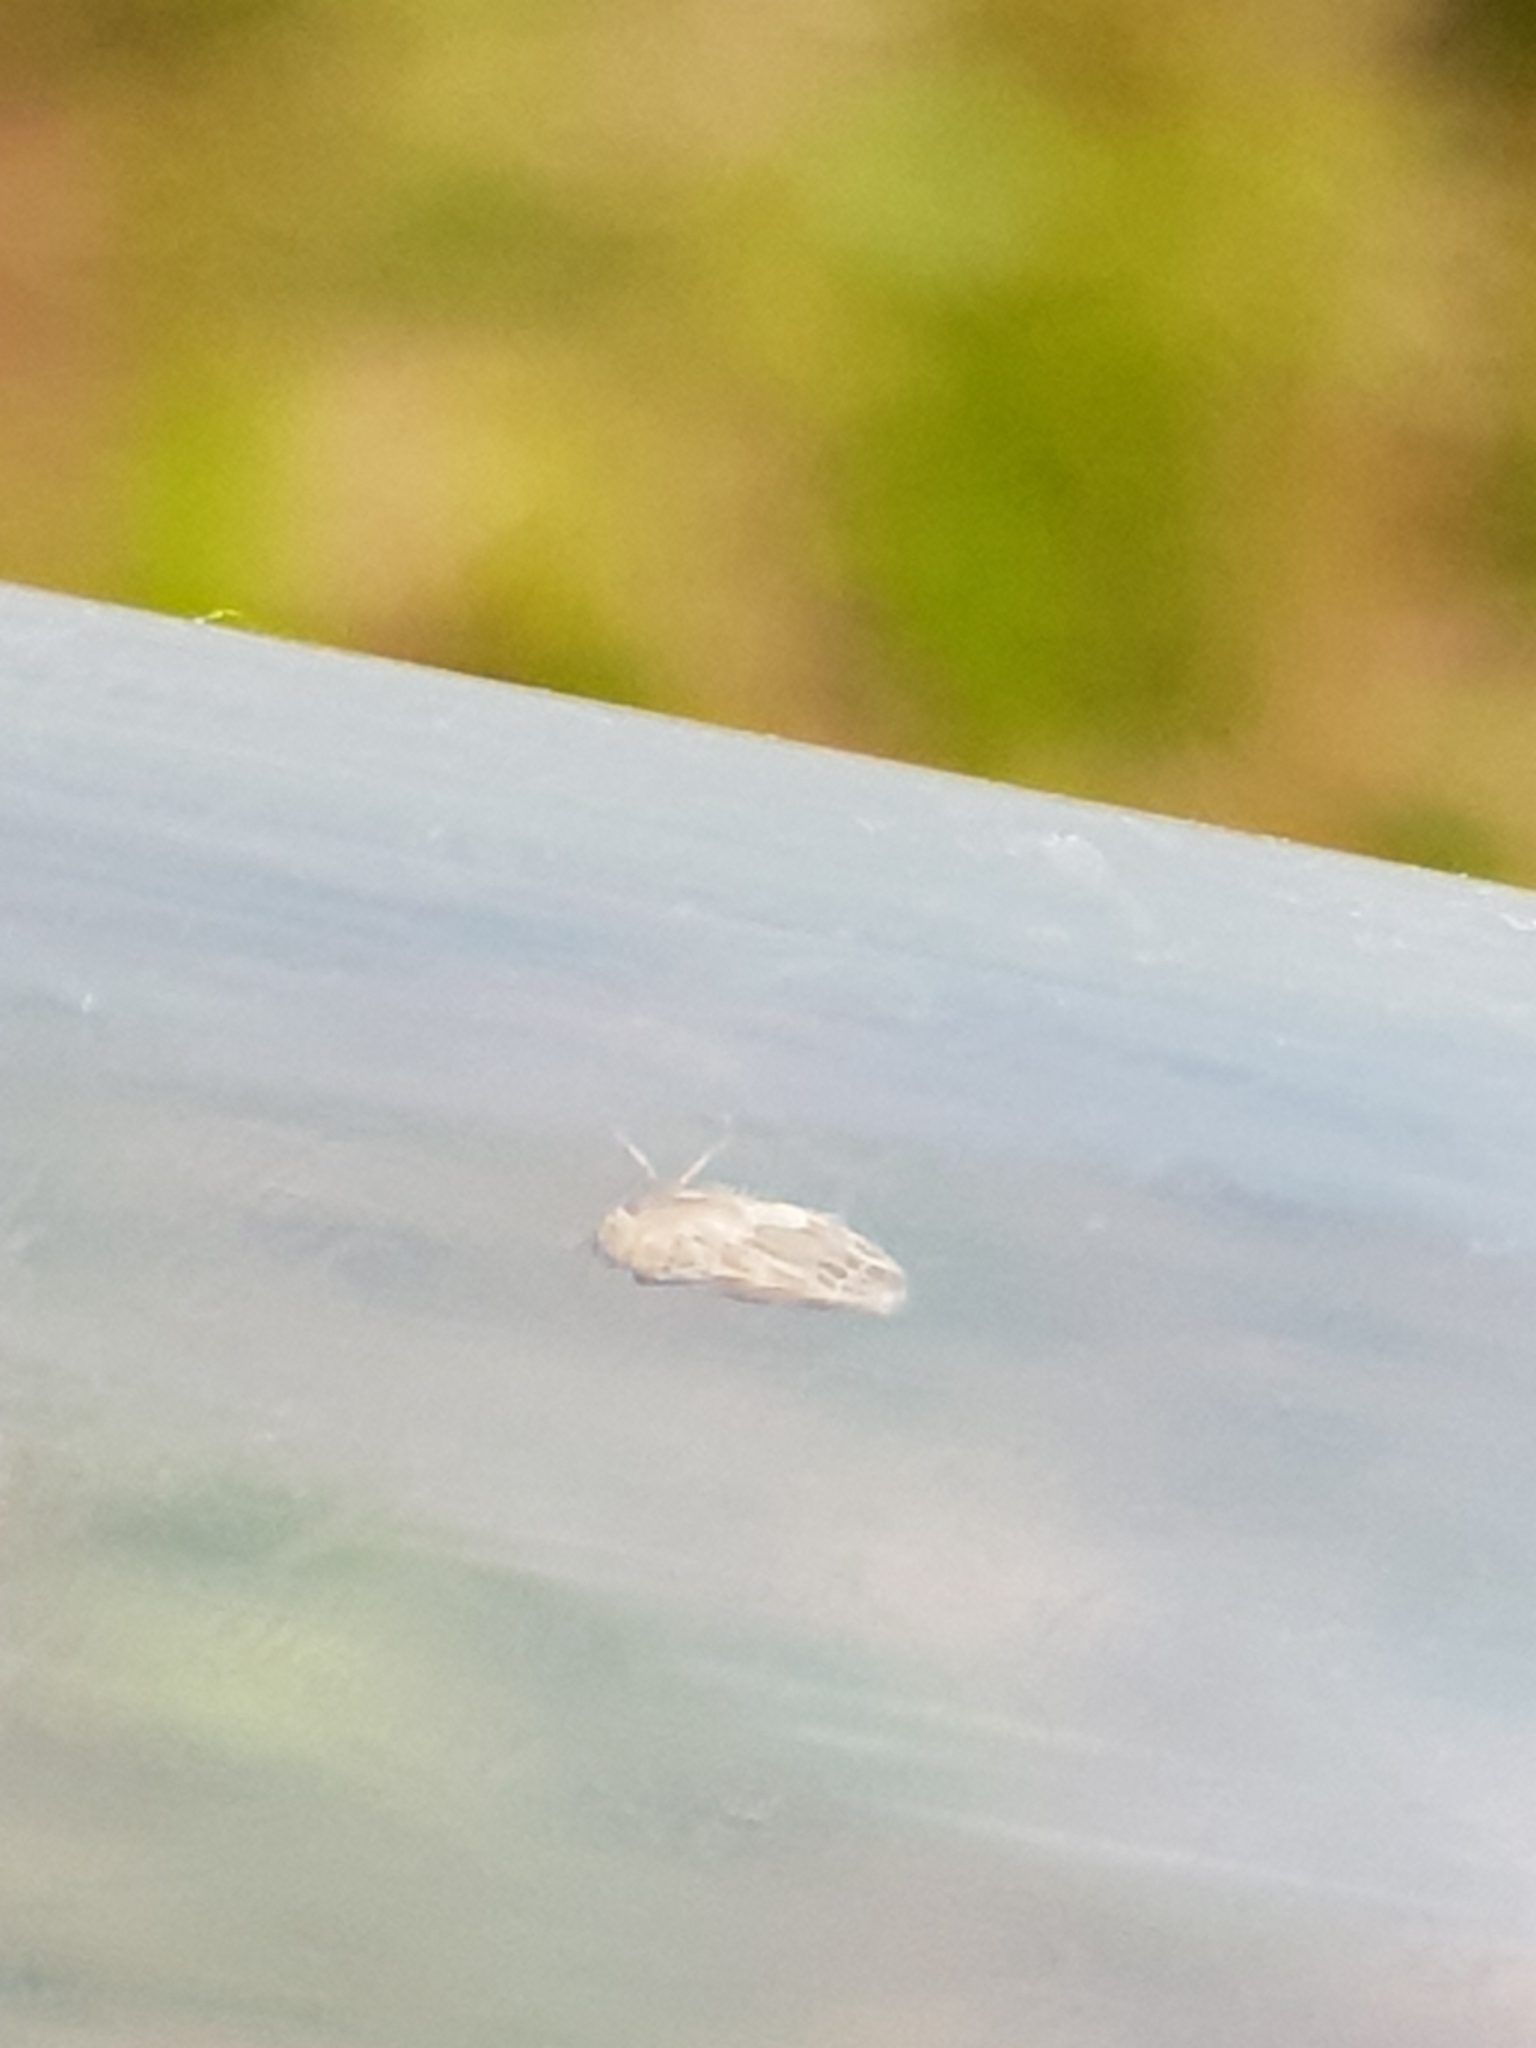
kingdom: Animalia
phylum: Arthropoda
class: Insecta
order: Hemiptera
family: Cicadellidae
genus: Erythria
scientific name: Erythria manderstjernii
